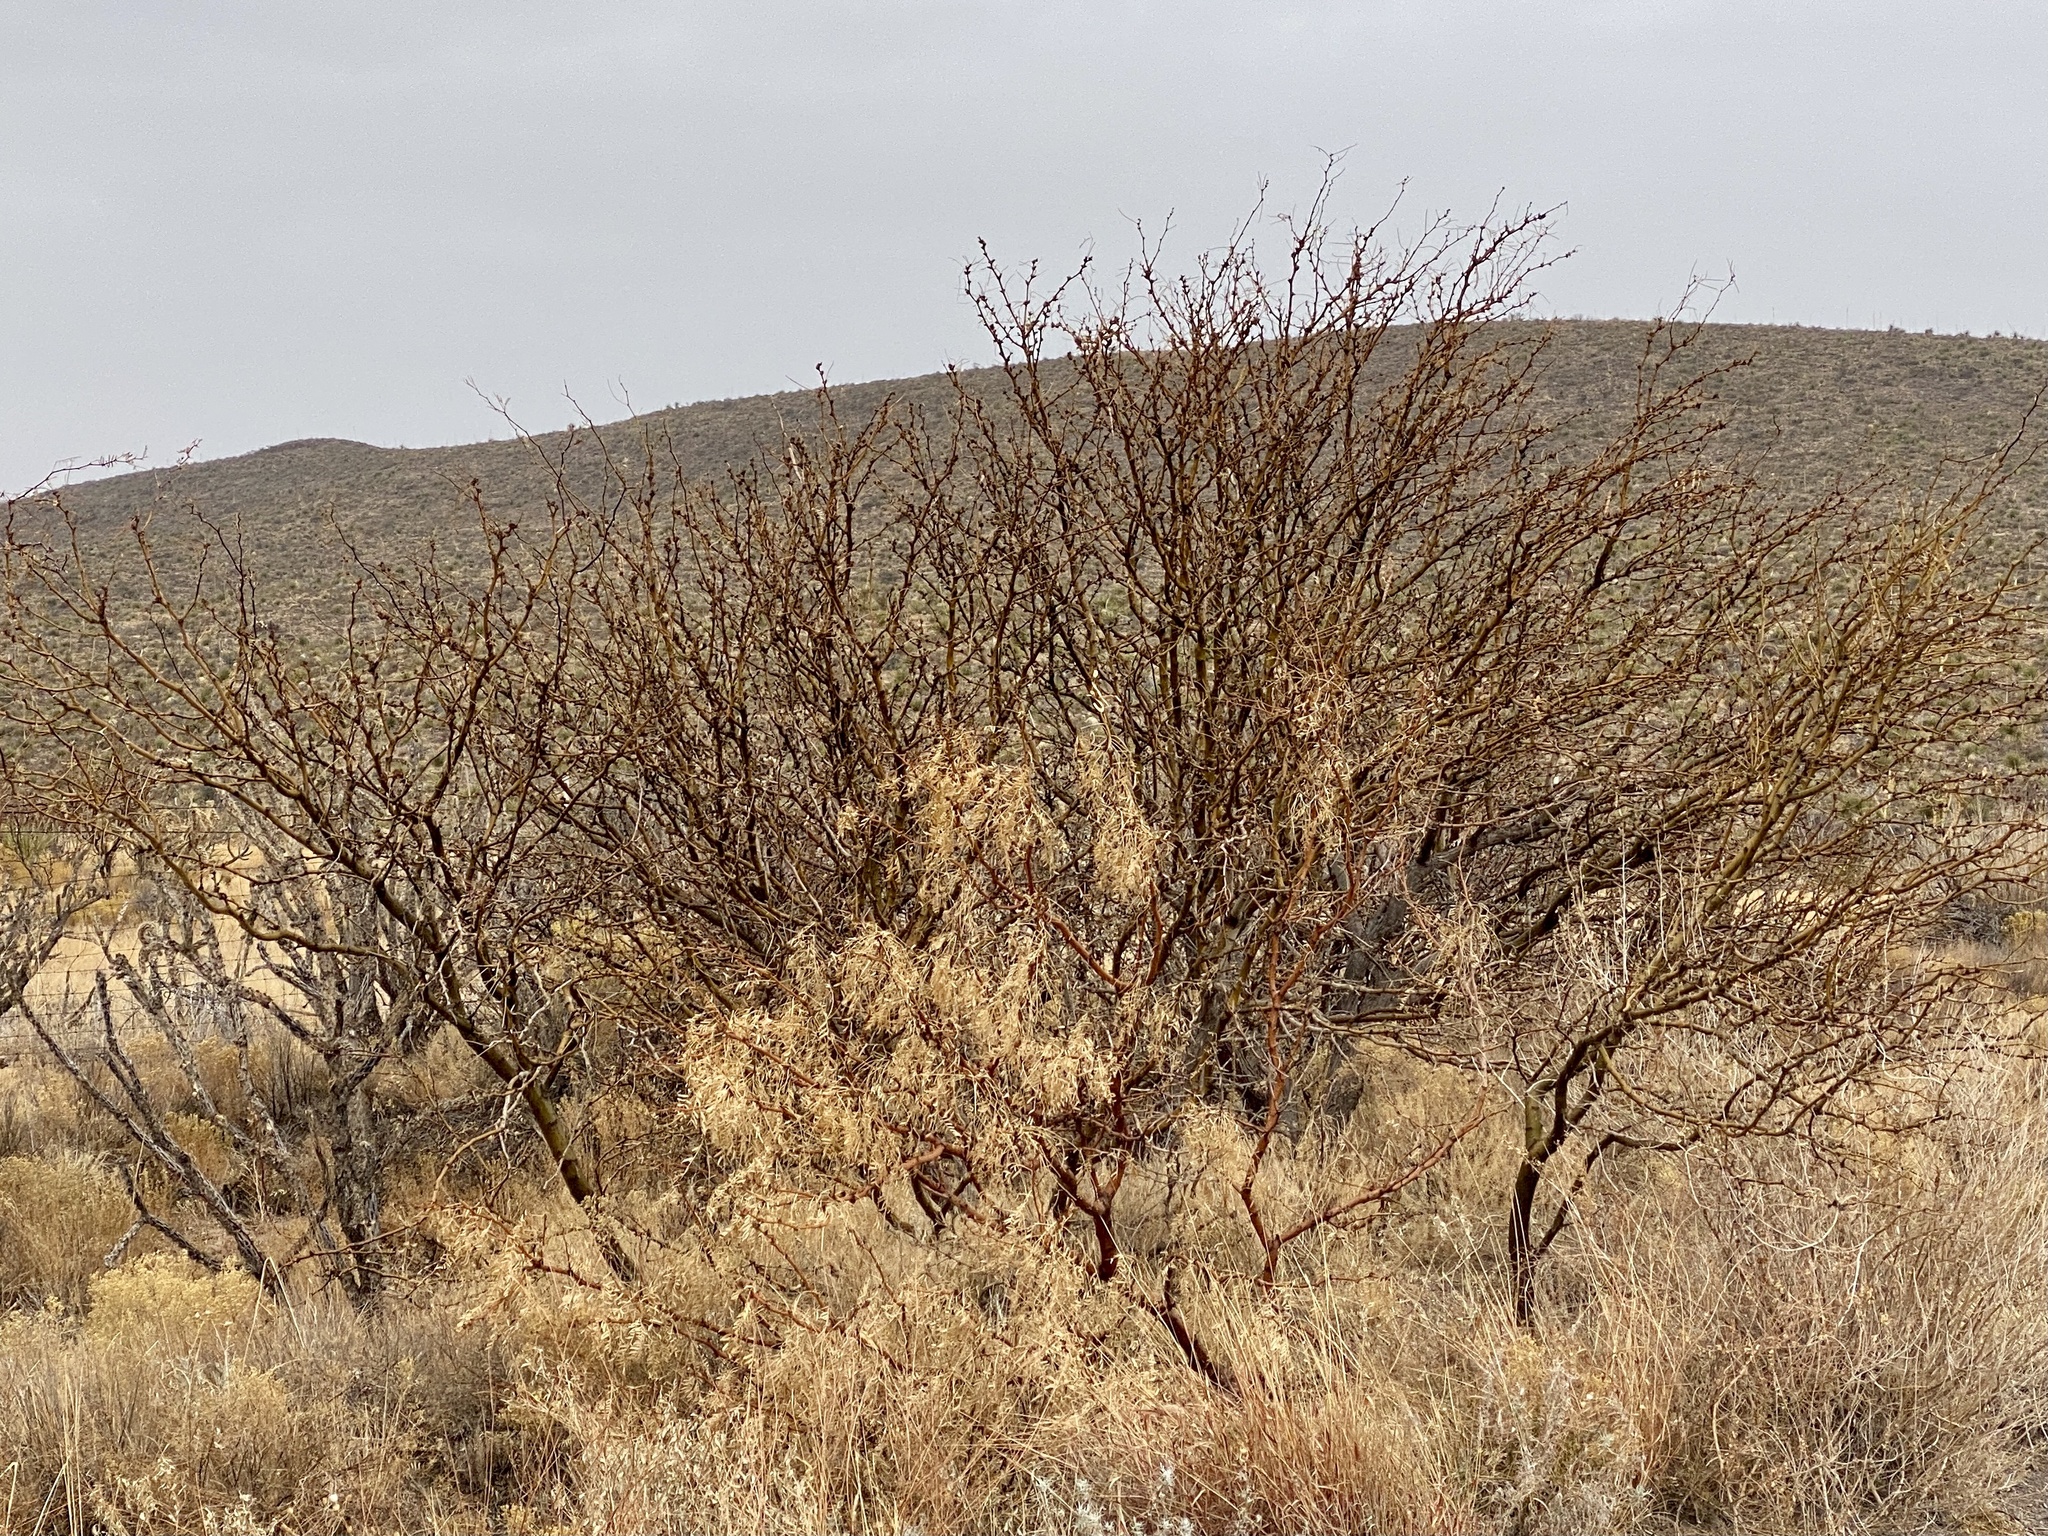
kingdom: Plantae
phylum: Tracheophyta
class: Magnoliopsida
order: Fabales
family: Fabaceae
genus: Prosopis
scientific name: Prosopis glandulosa
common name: Honey mesquite
